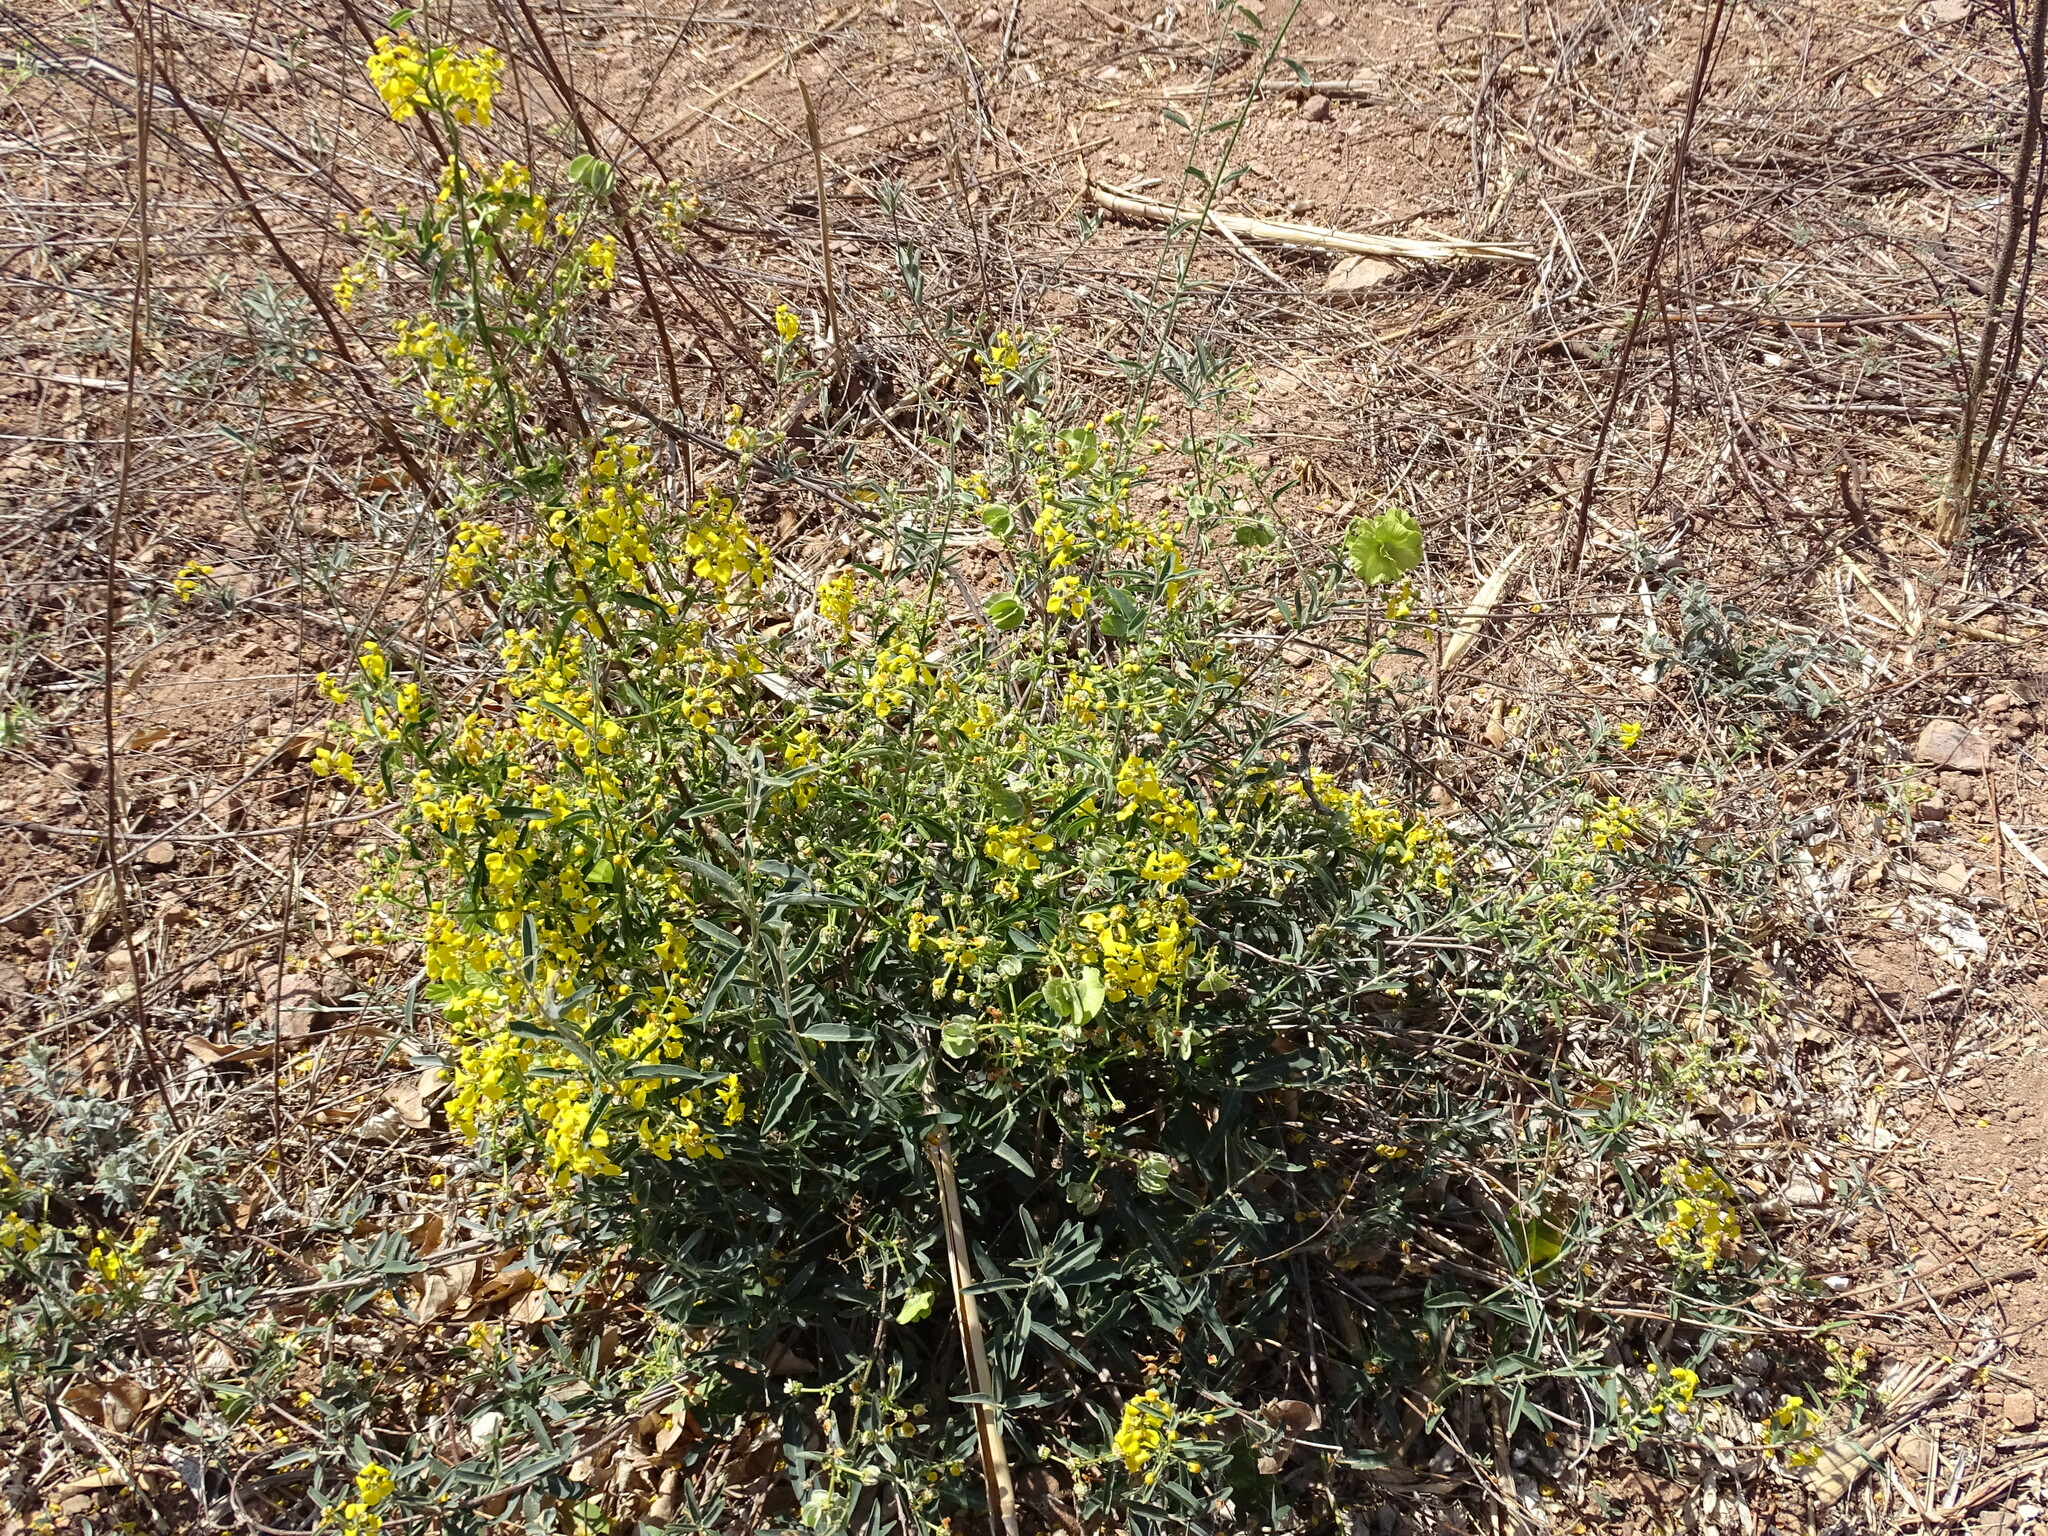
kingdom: Plantae
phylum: Tracheophyta
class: Magnoliopsida
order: Malpighiales
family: Malpighiaceae
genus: Callaeum
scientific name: Callaeum macropterum
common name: Mexican butterfly-vine
